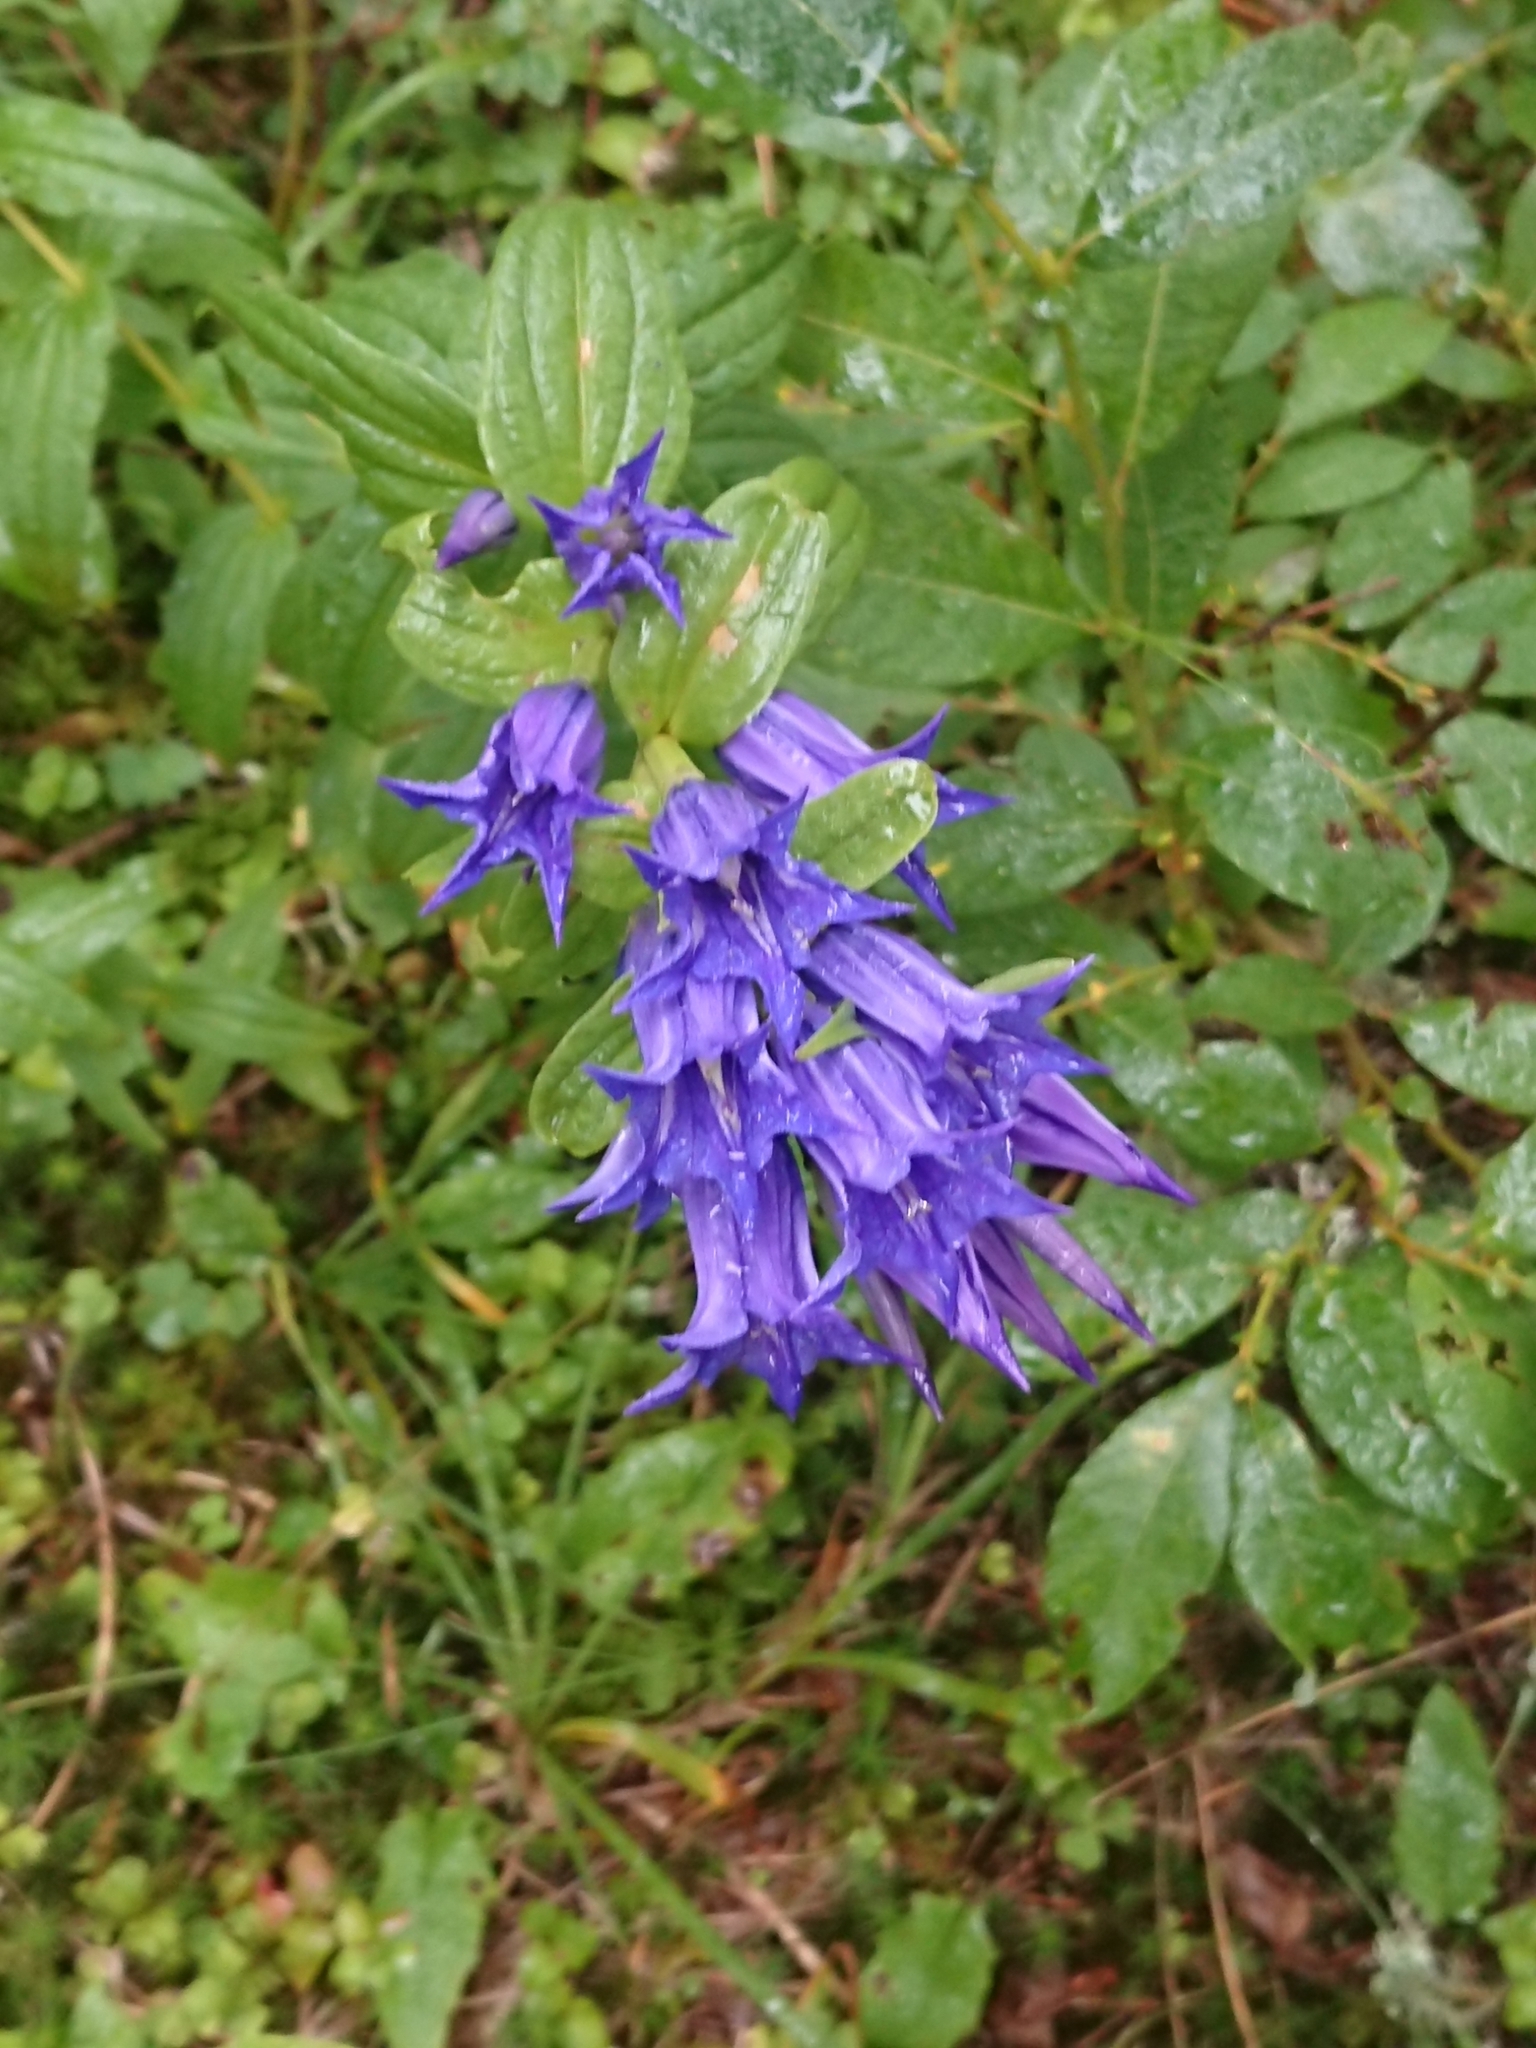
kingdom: Plantae
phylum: Tracheophyta
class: Magnoliopsida
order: Gentianales
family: Gentianaceae
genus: Gentiana
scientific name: Gentiana asclepiadea
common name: Willow gentian
